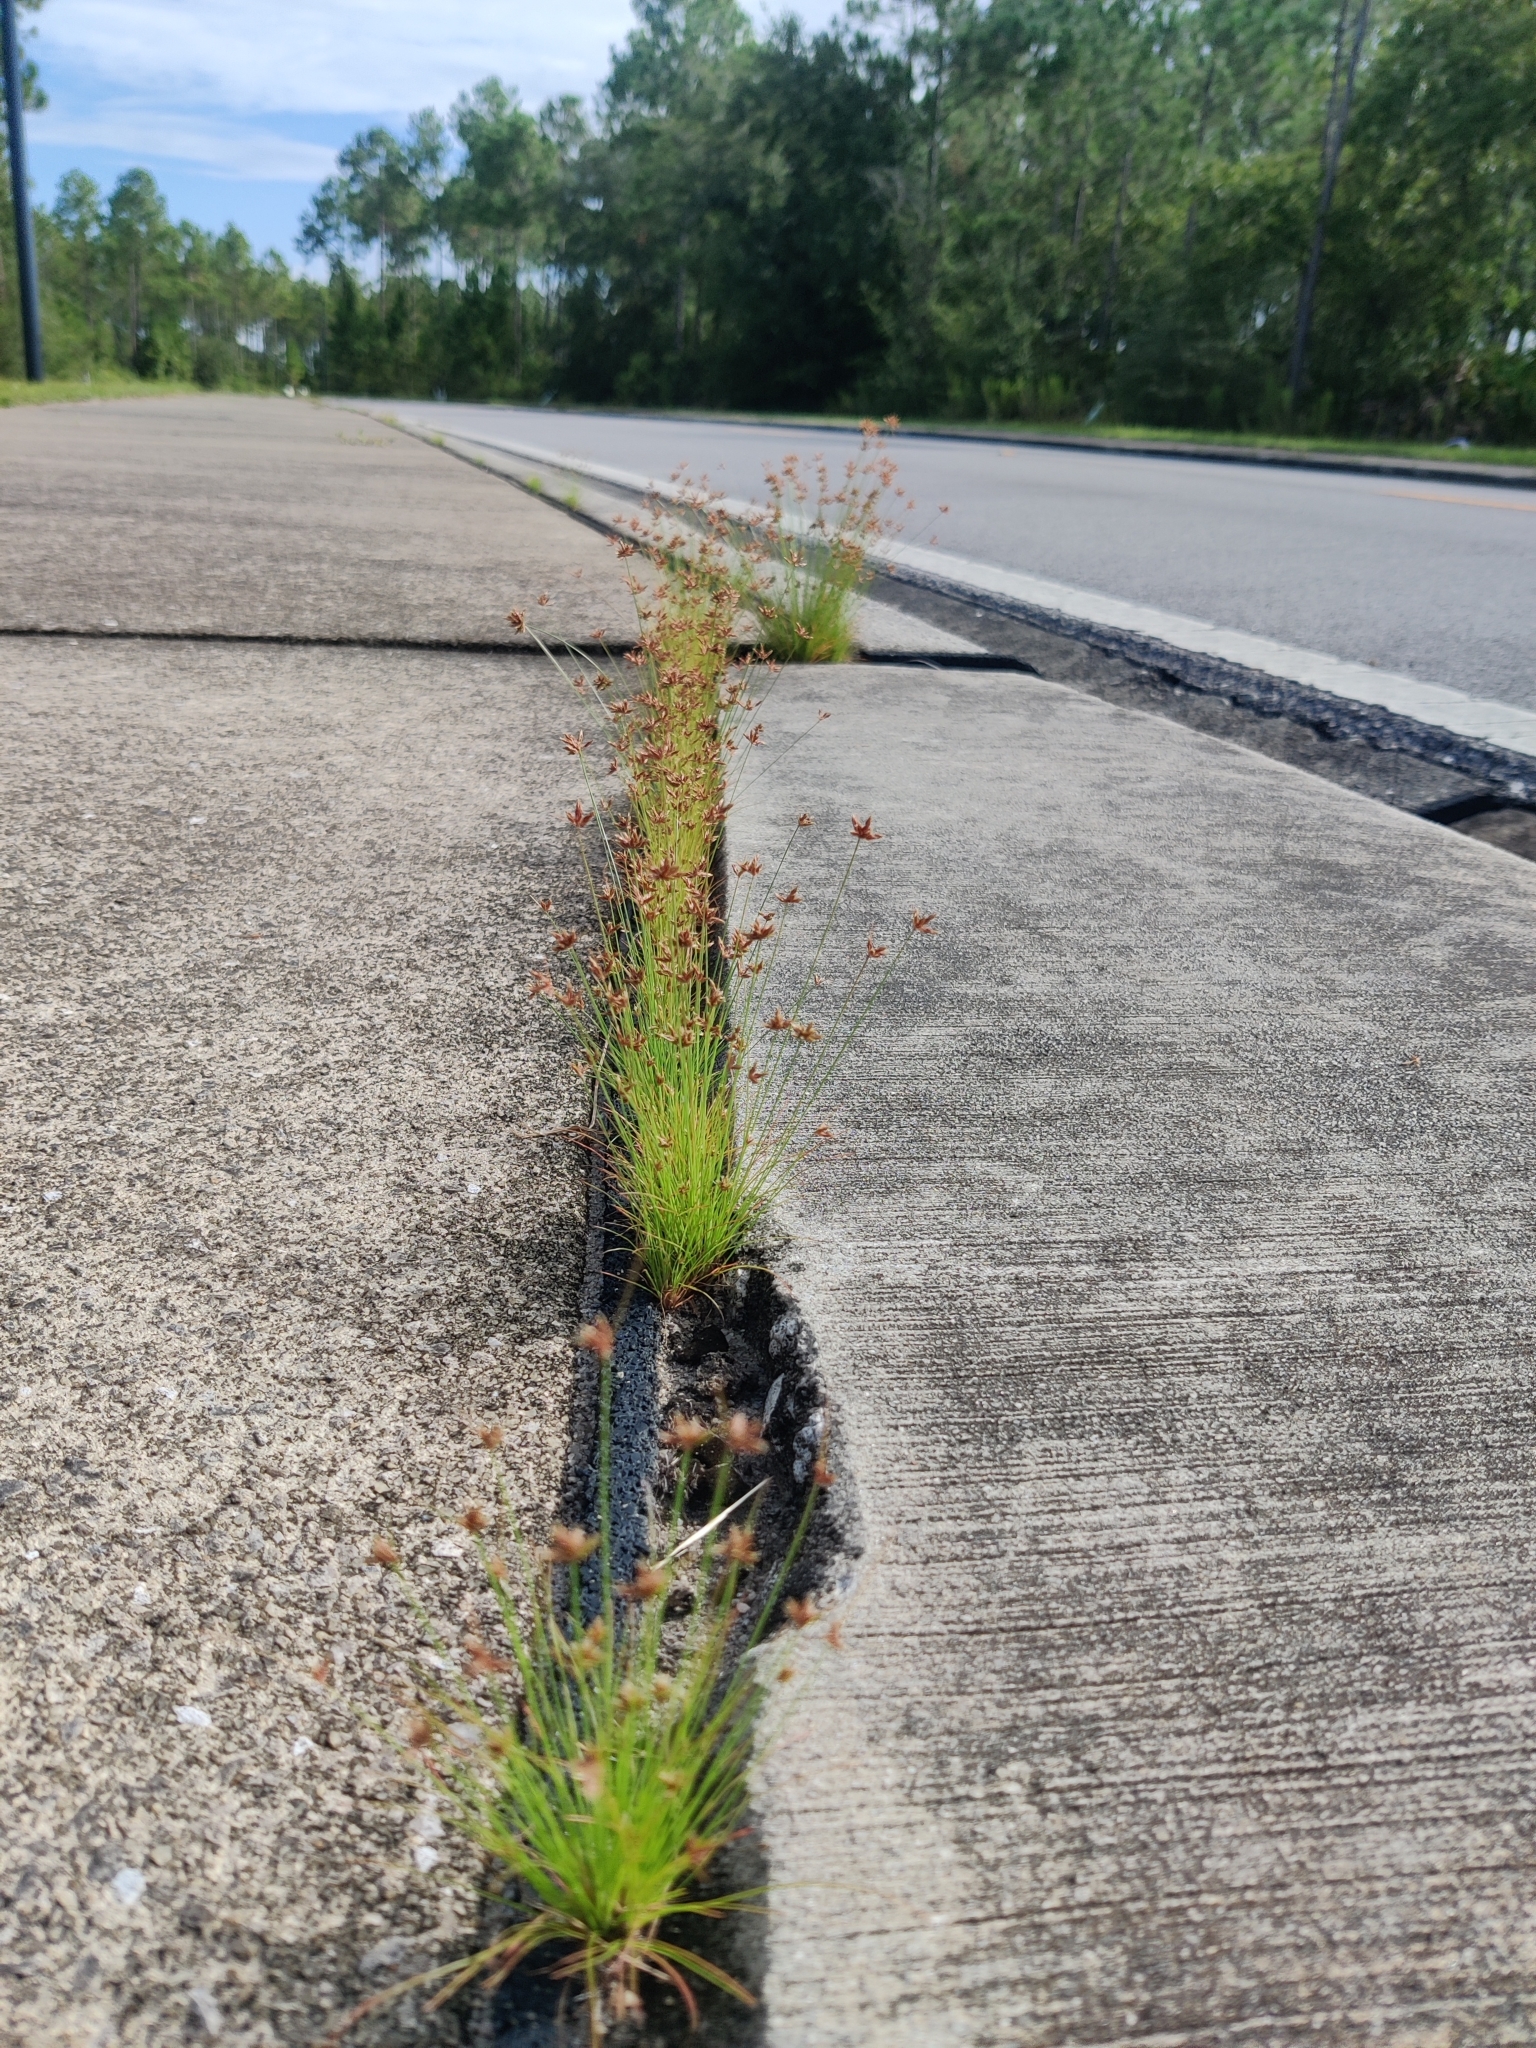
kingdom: Plantae
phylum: Tracheophyta
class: Liliopsida
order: Poales
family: Cyperaceae
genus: Bulbostylis
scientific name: Bulbostylis barbata
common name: Watergrass
